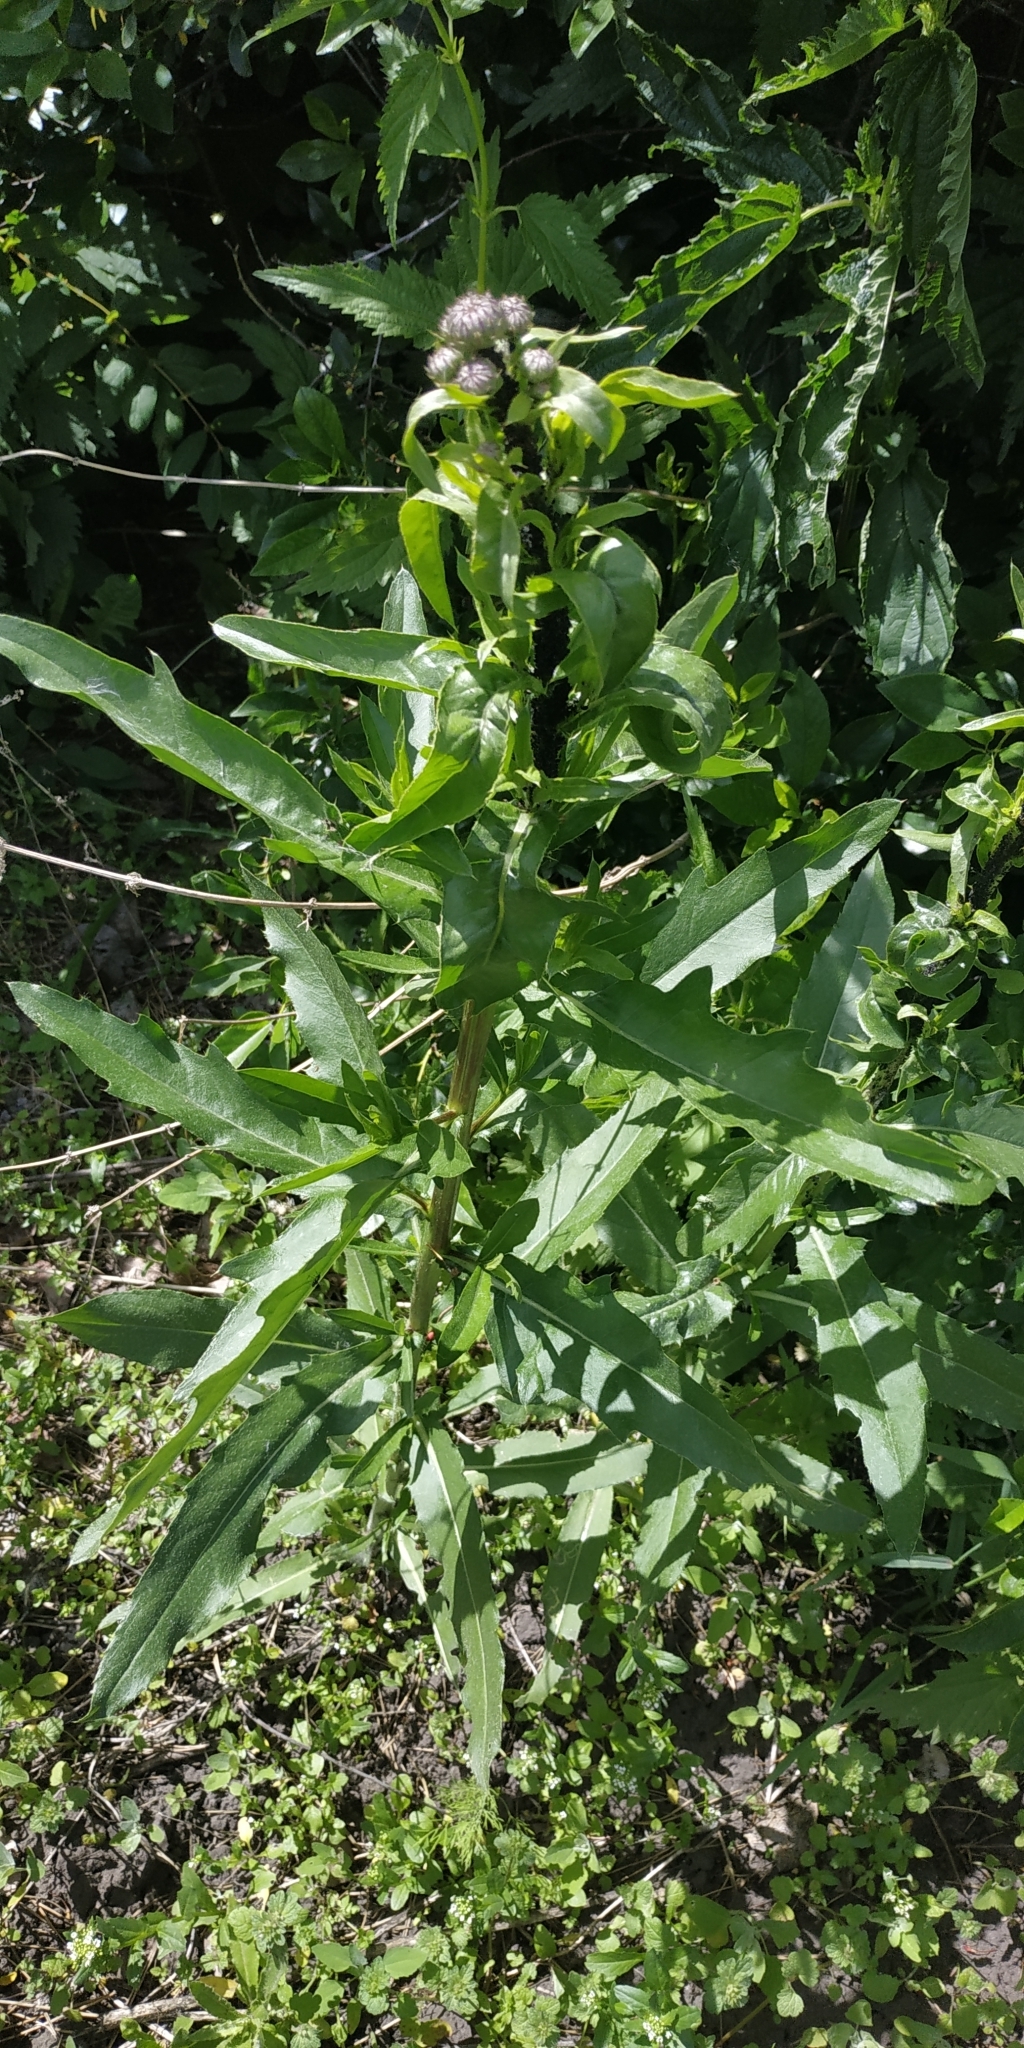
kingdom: Plantae
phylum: Tracheophyta
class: Magnoliopsida
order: Asterales
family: Asteraceae
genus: Cirsium
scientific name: Cirsium arvense
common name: Creeping thistle
